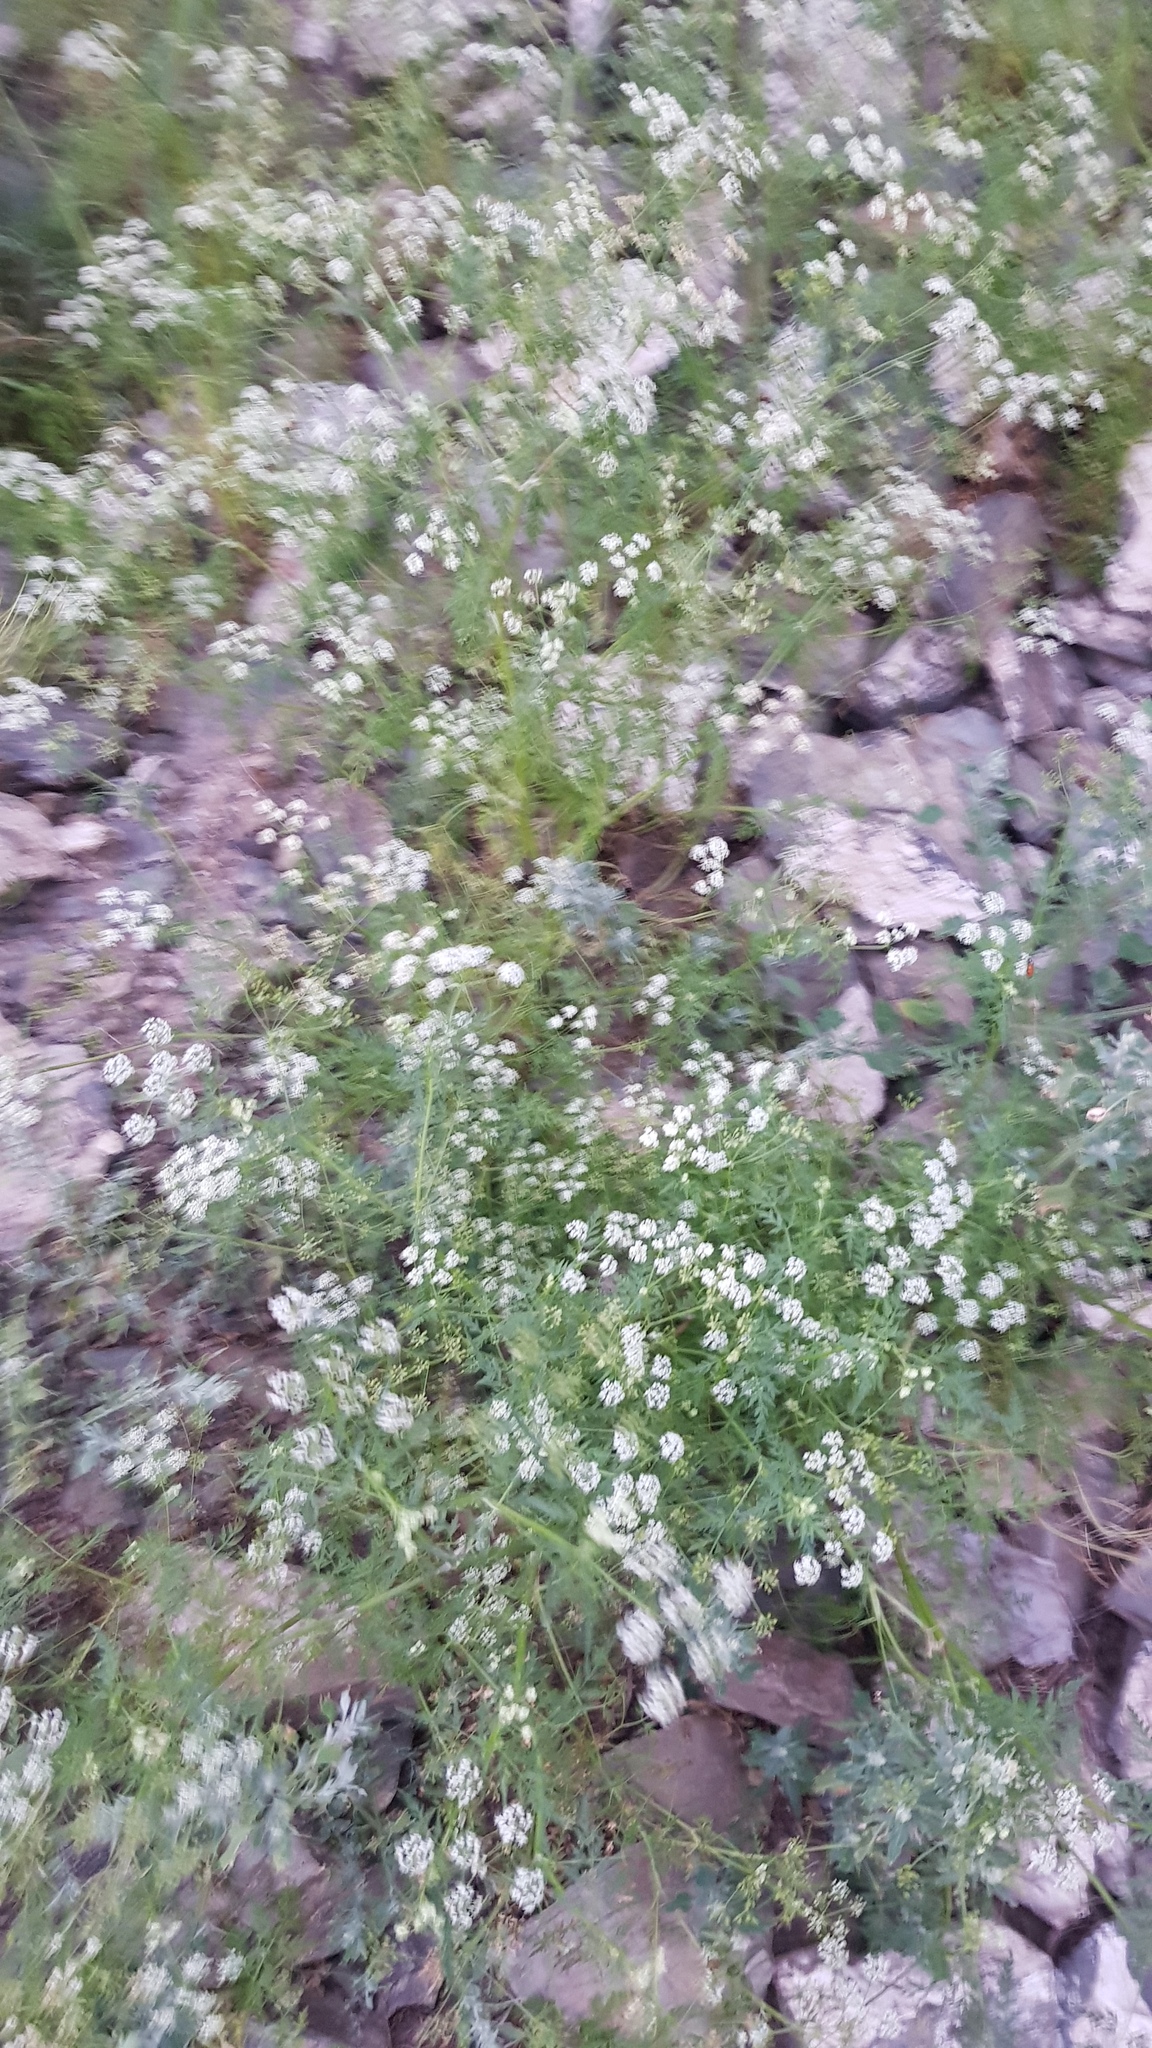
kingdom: Plantae
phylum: Tracheophyta
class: Magnoliopsida
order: Apiales
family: Apiaceae
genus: Sphallerocarpus
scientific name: Sphallerocarpus gracilis
